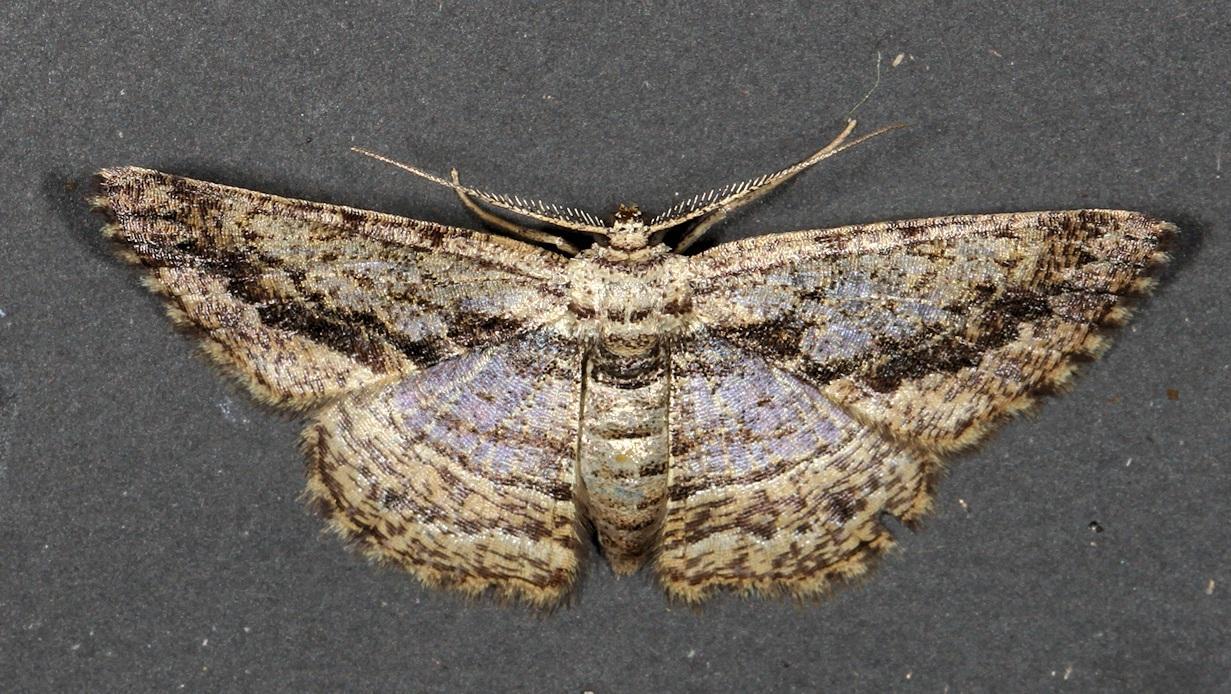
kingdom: Animalia
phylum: Arthropoda
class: Insecta
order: Lepidoptera
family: Geometridae
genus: Zamarada
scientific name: Zamarada differens
